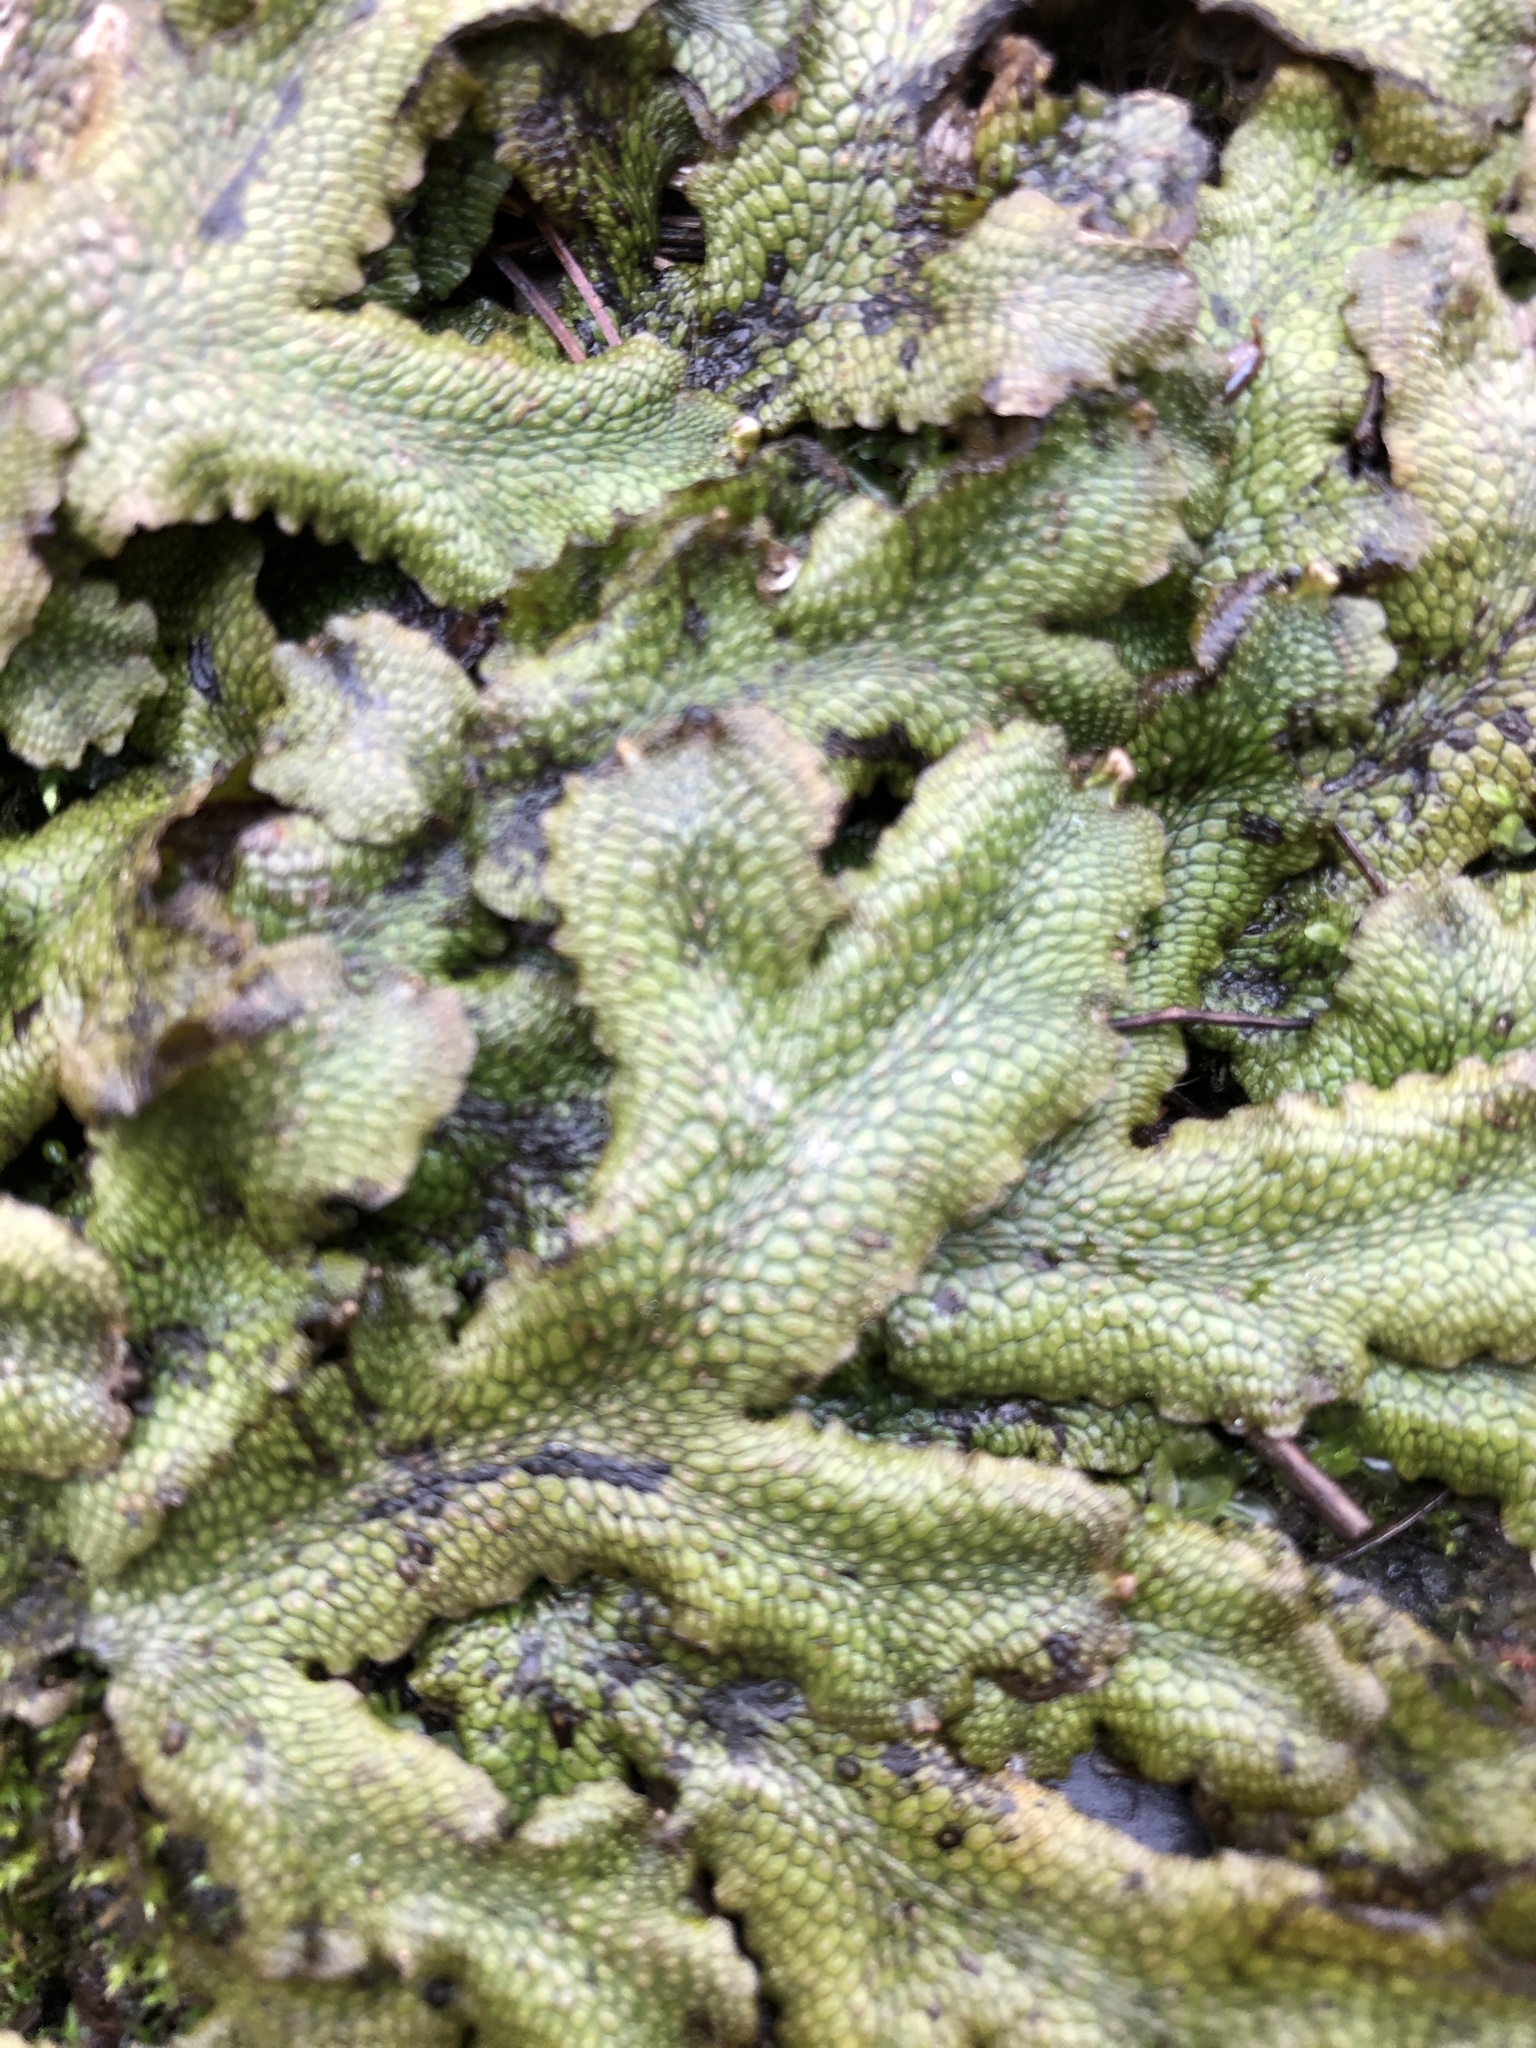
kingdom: Plantae
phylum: Marchantiophyta
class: Marchantiopsida
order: Marchantiales
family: Conocephalaceae
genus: Conocephalum
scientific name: Conocephalum salebrosum
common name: Cat-tongue liverwort
